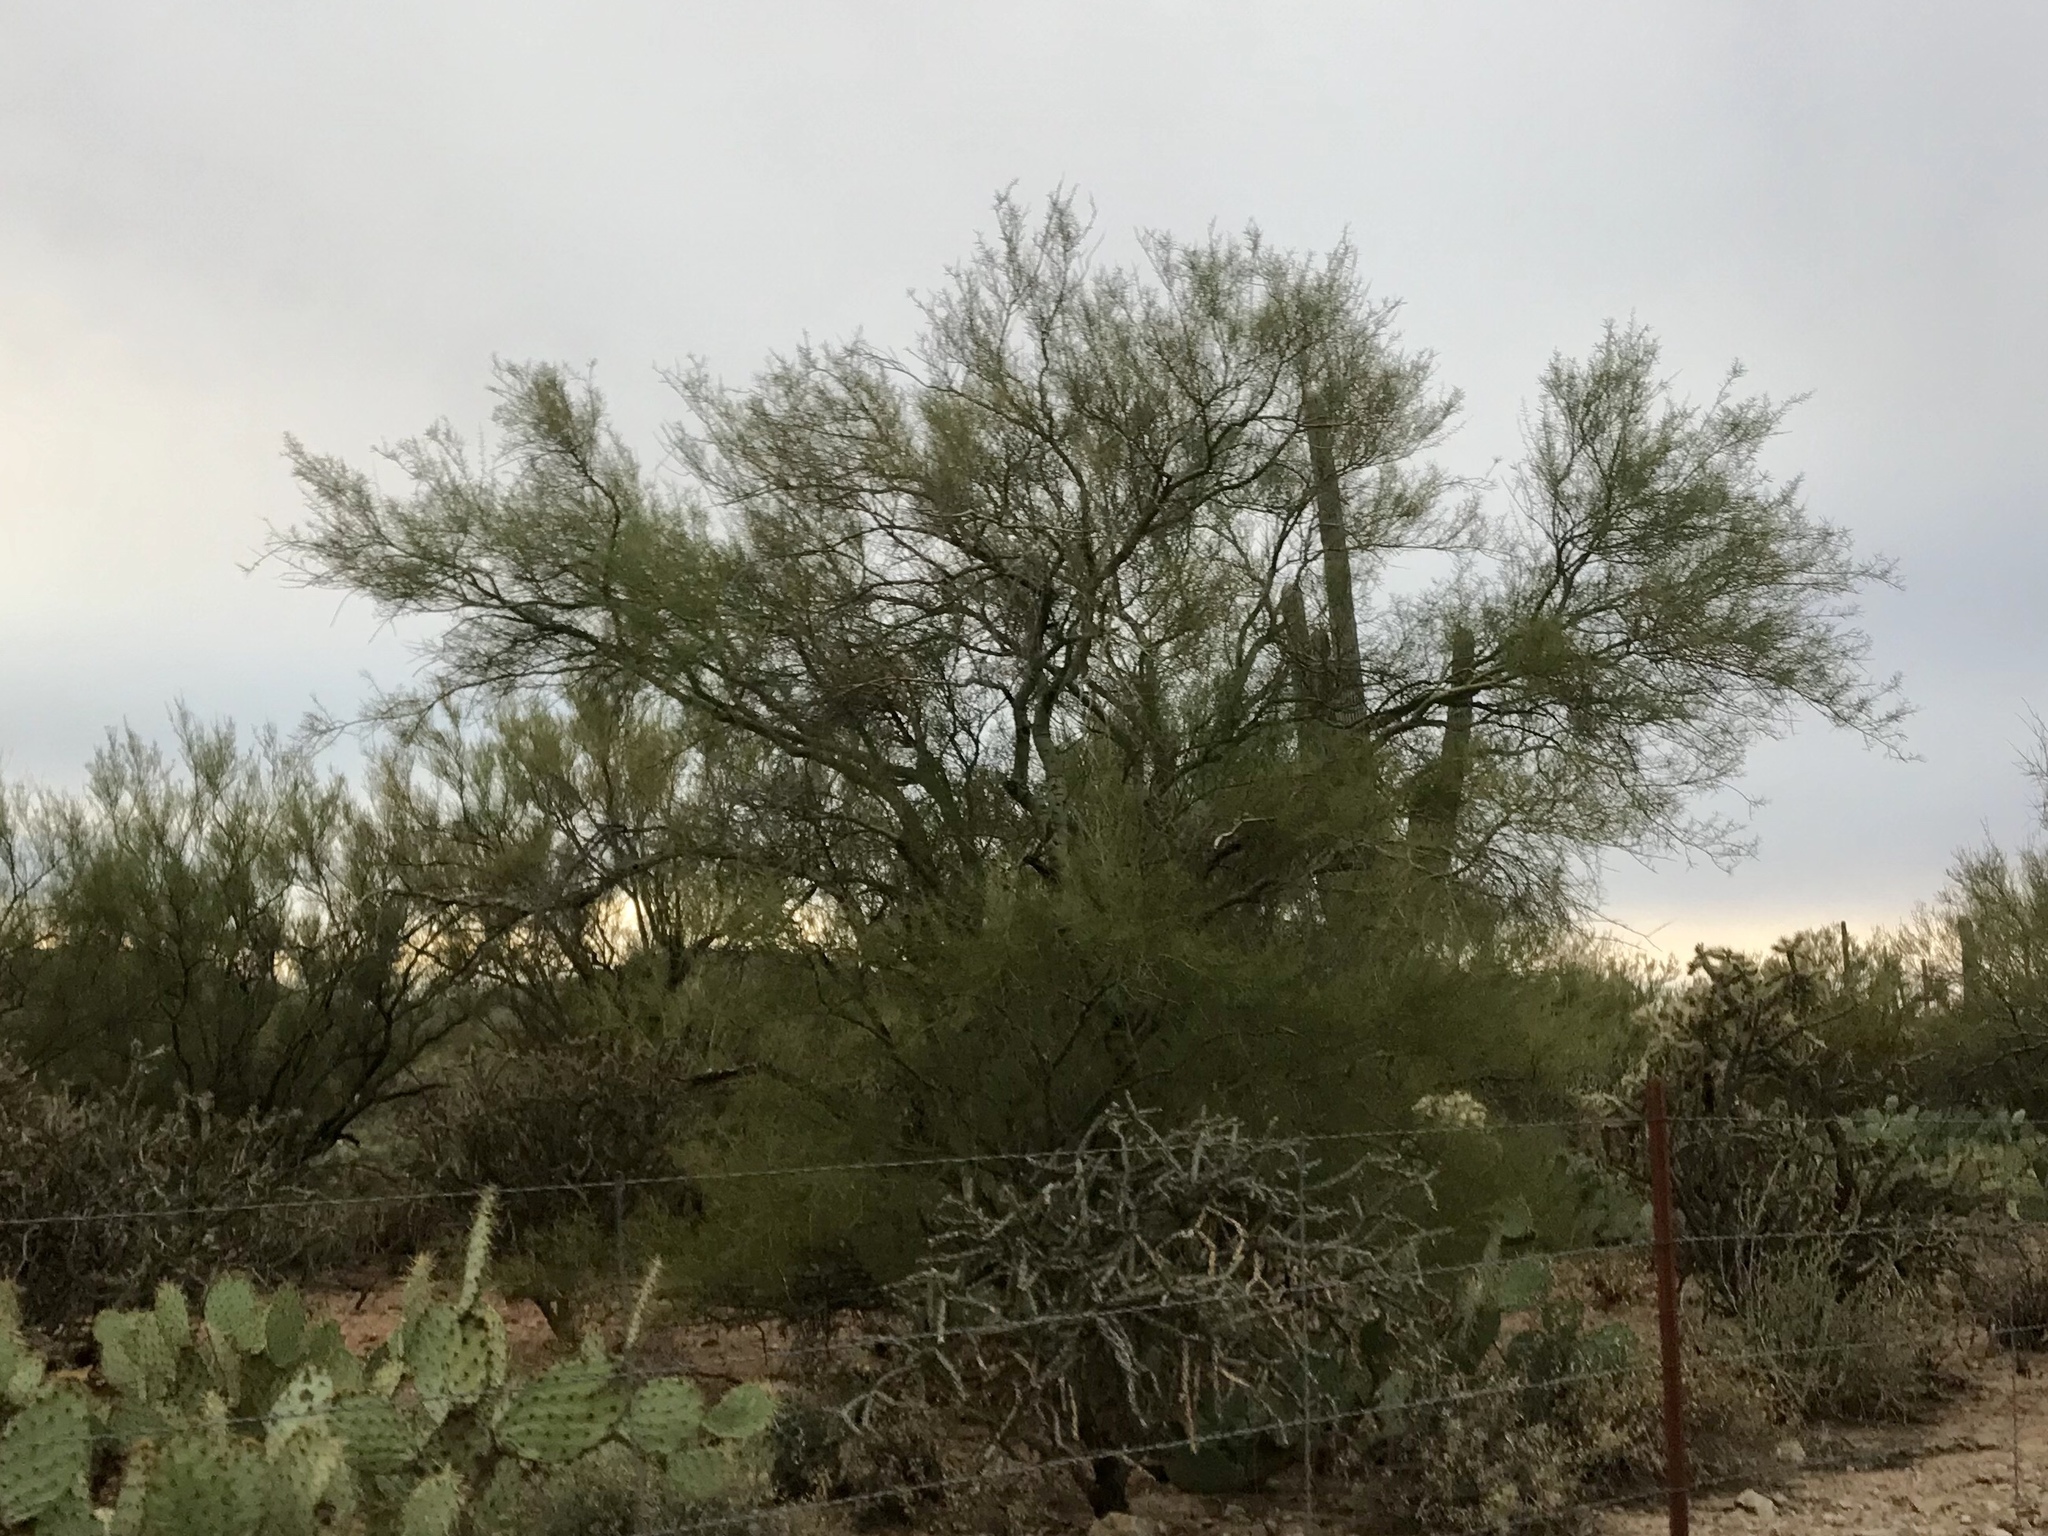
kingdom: Plantae
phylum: Tracheophyta
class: Magnoliopsida
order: Fabales
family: Fabaceae
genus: Parkinsonia
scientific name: Parkinsonia microphylla
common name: Yellow paloverde
